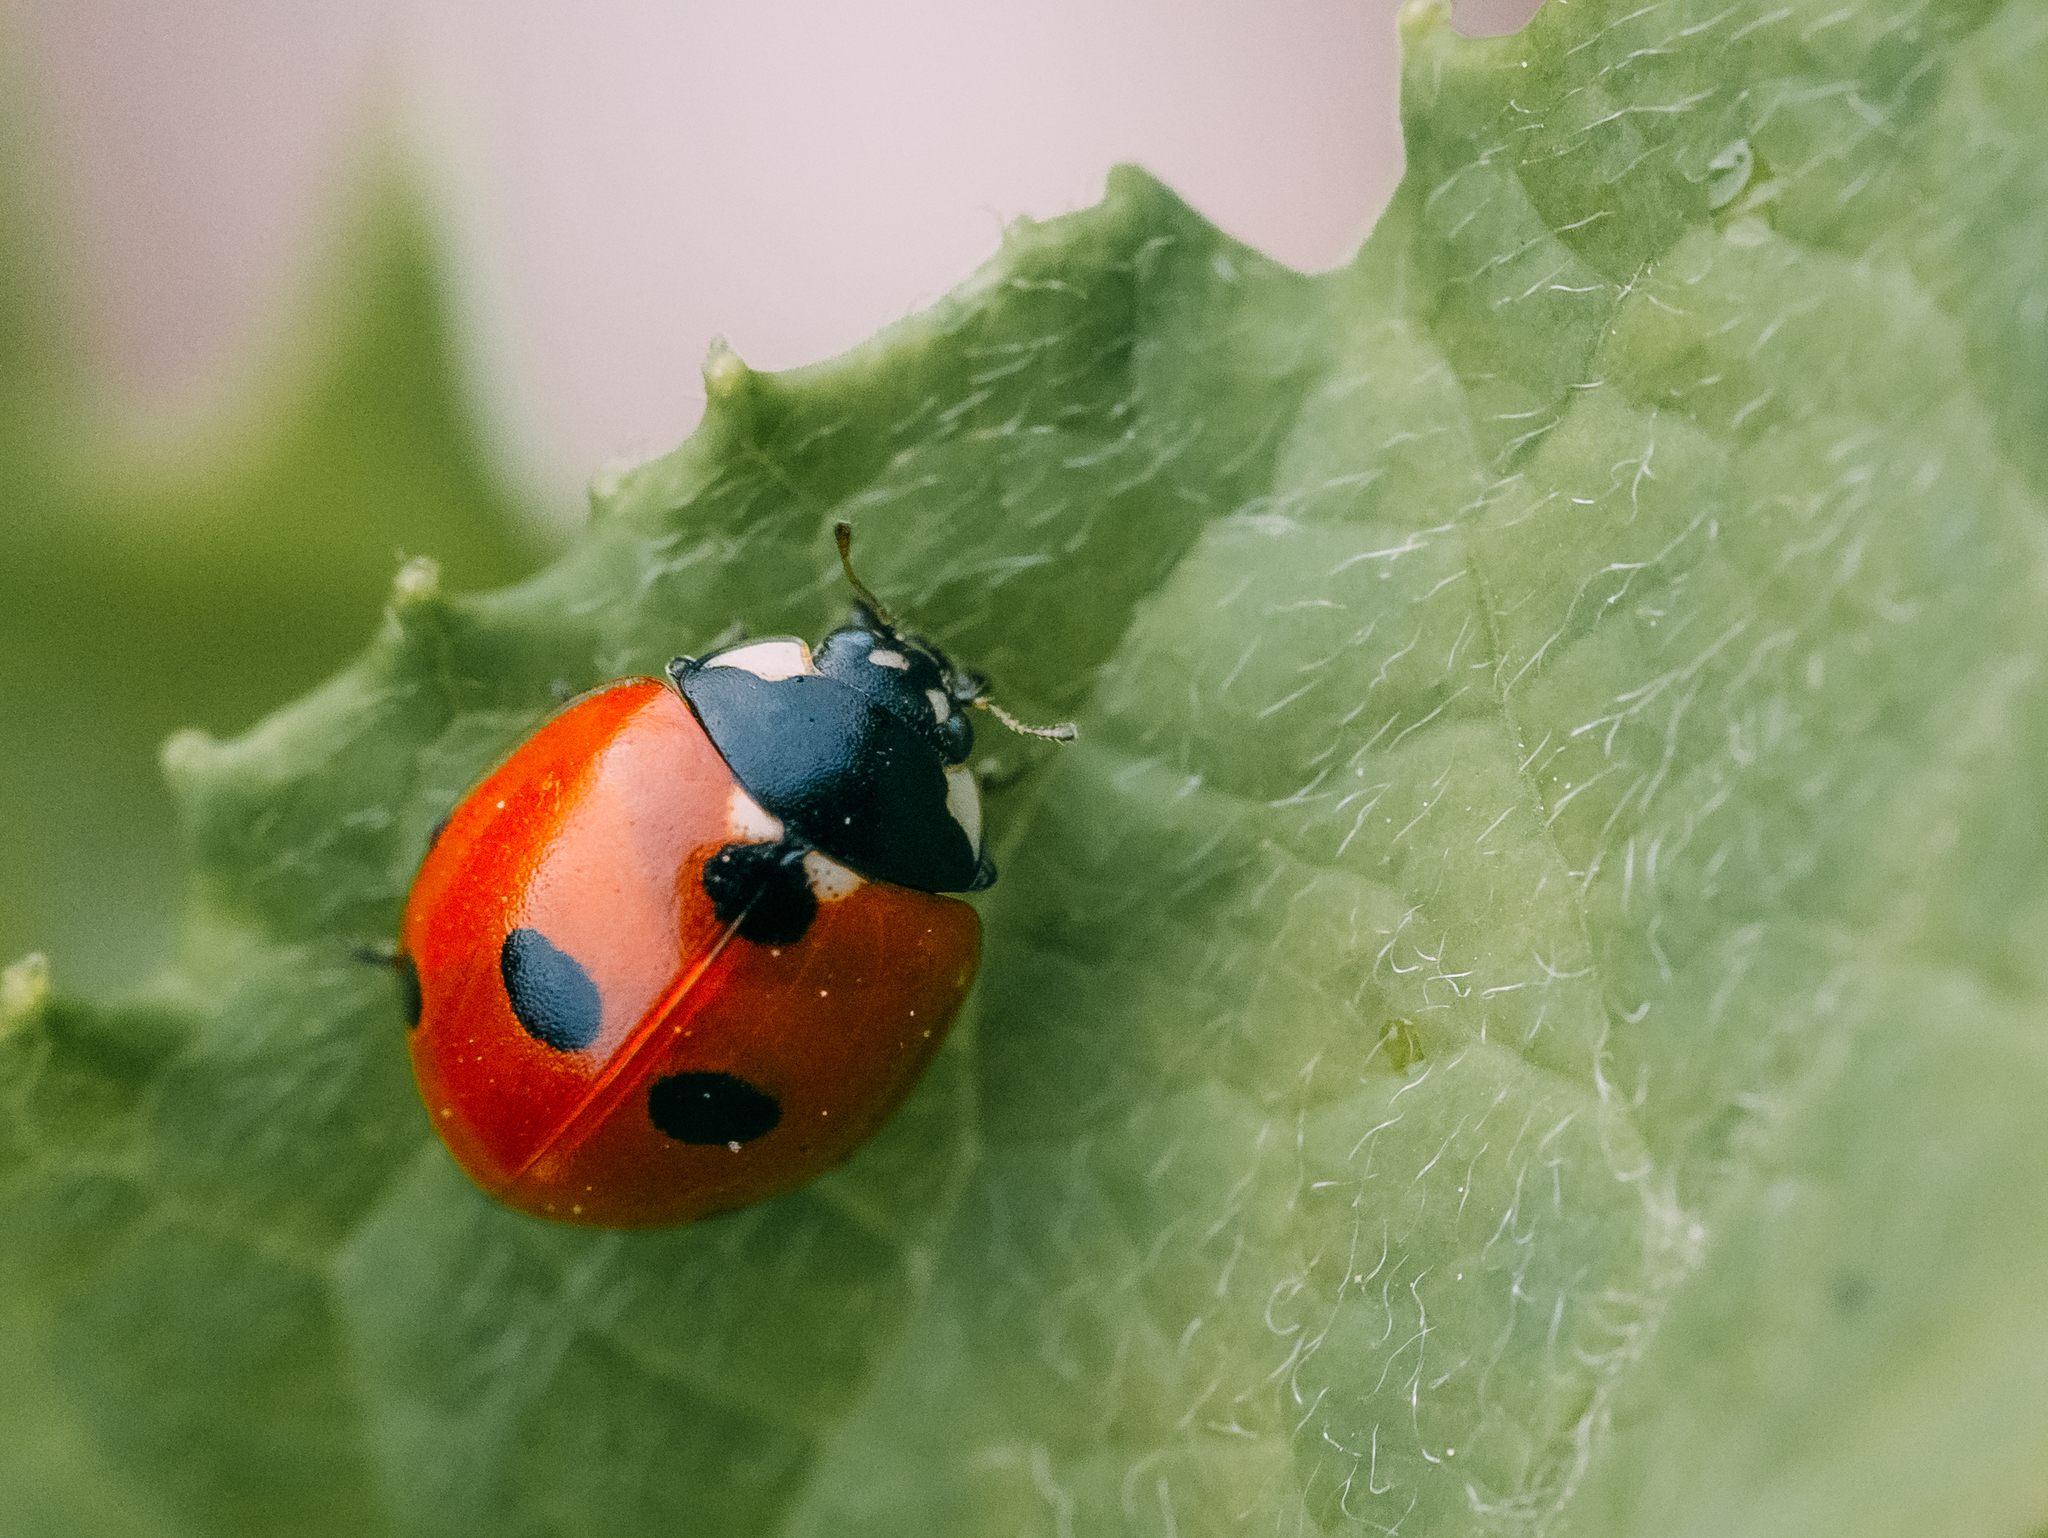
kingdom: Animalia
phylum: Arthropoda
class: Insecta
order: Coleoptera
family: Coccinellidae
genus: Coccinella
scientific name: Coccinella quinquepunctata
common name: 5-spot ladybird
